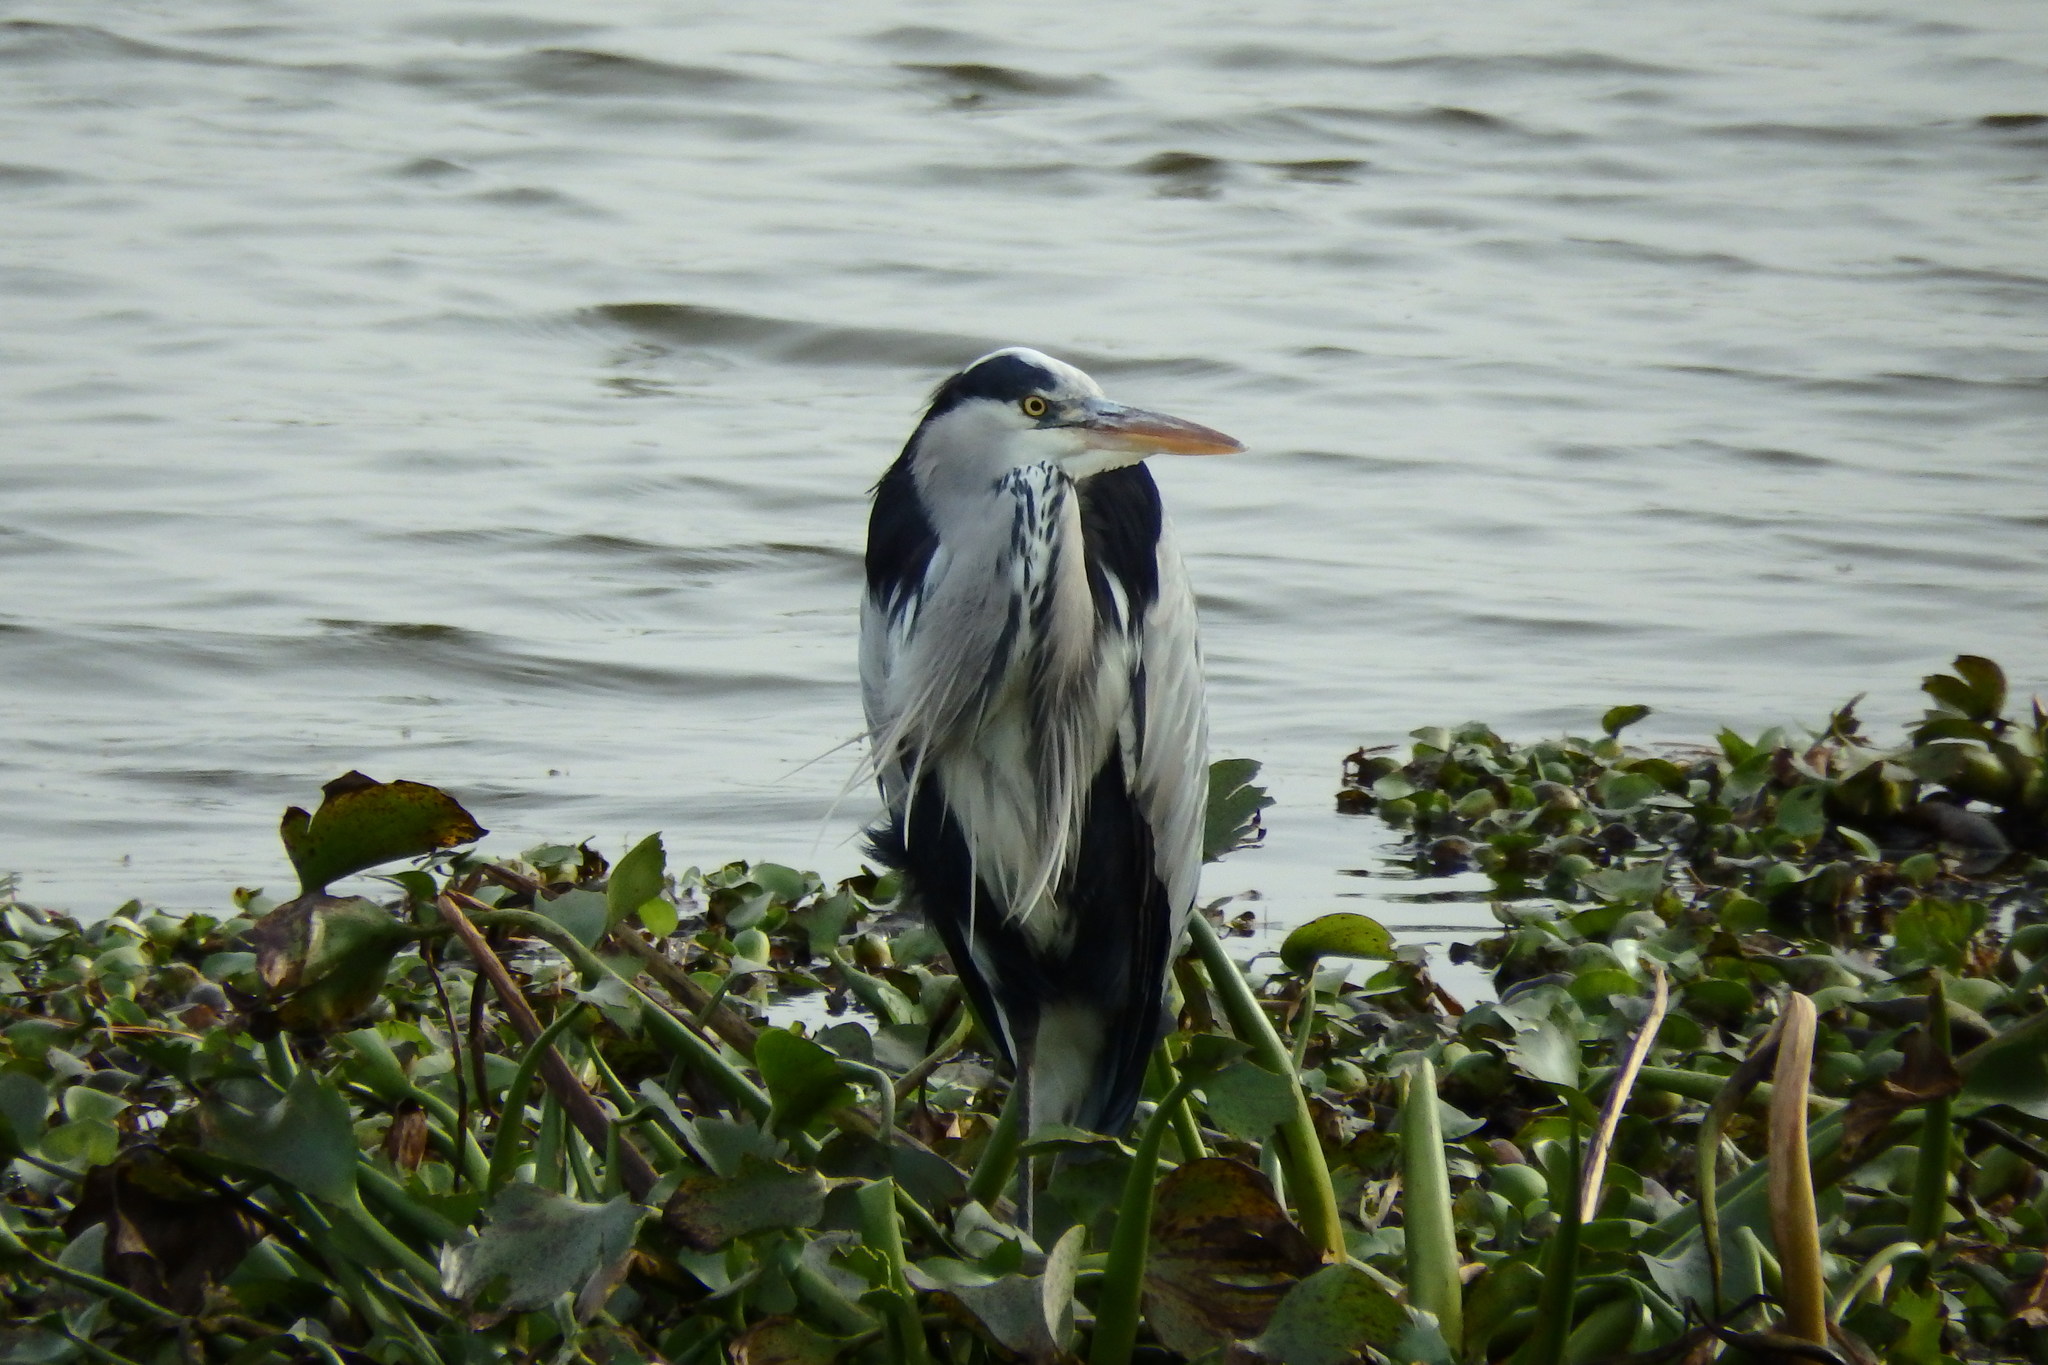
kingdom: Animalia
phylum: Chordata
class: Aves
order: Pelecaniformes
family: Ardeidae
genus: Ardea
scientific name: Ardea cinerea
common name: Grey heron
